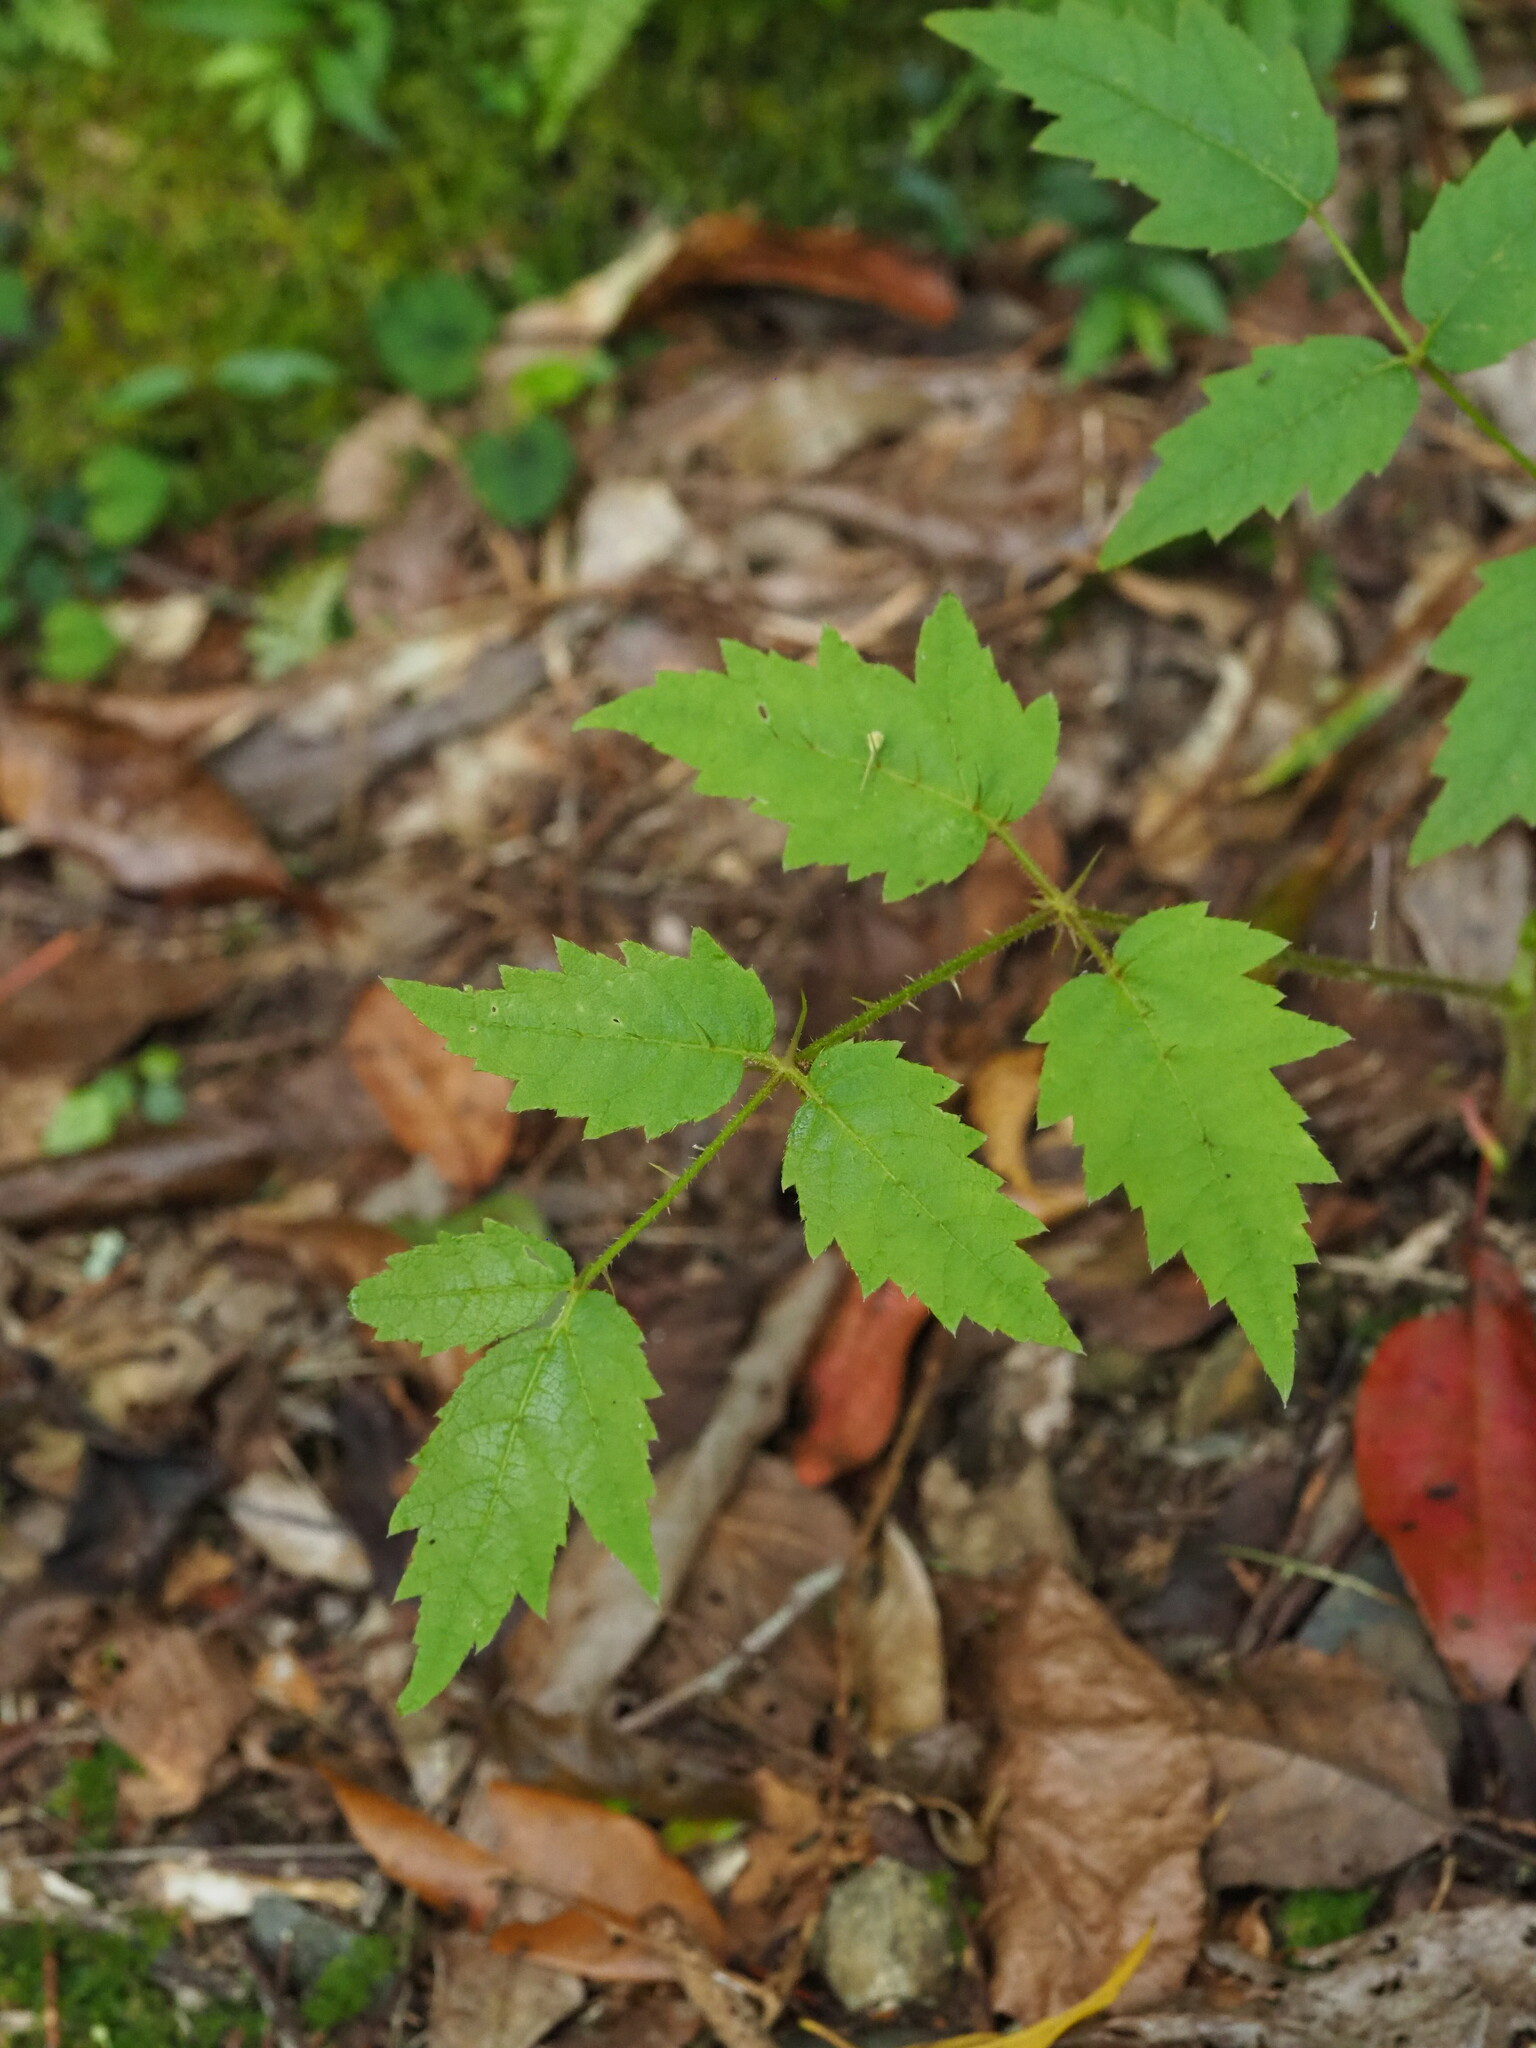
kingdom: Plantae
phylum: Tracheophyta
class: Magnoliopsida
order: Apiales
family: Araliaceae
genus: Aralia
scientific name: Aralia decaisneana
